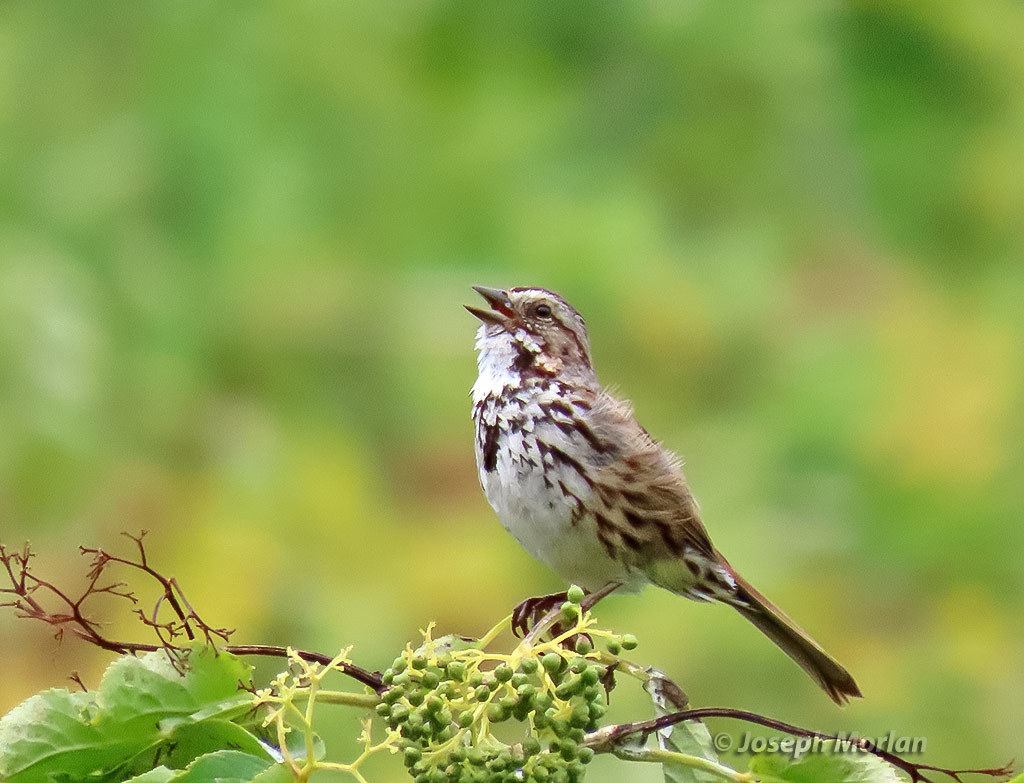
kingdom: Animalia
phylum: Chordata
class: Aves
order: Passeriformes
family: Passerellidae
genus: Melospiza
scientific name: Melospiza melodia
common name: Song sparrow
